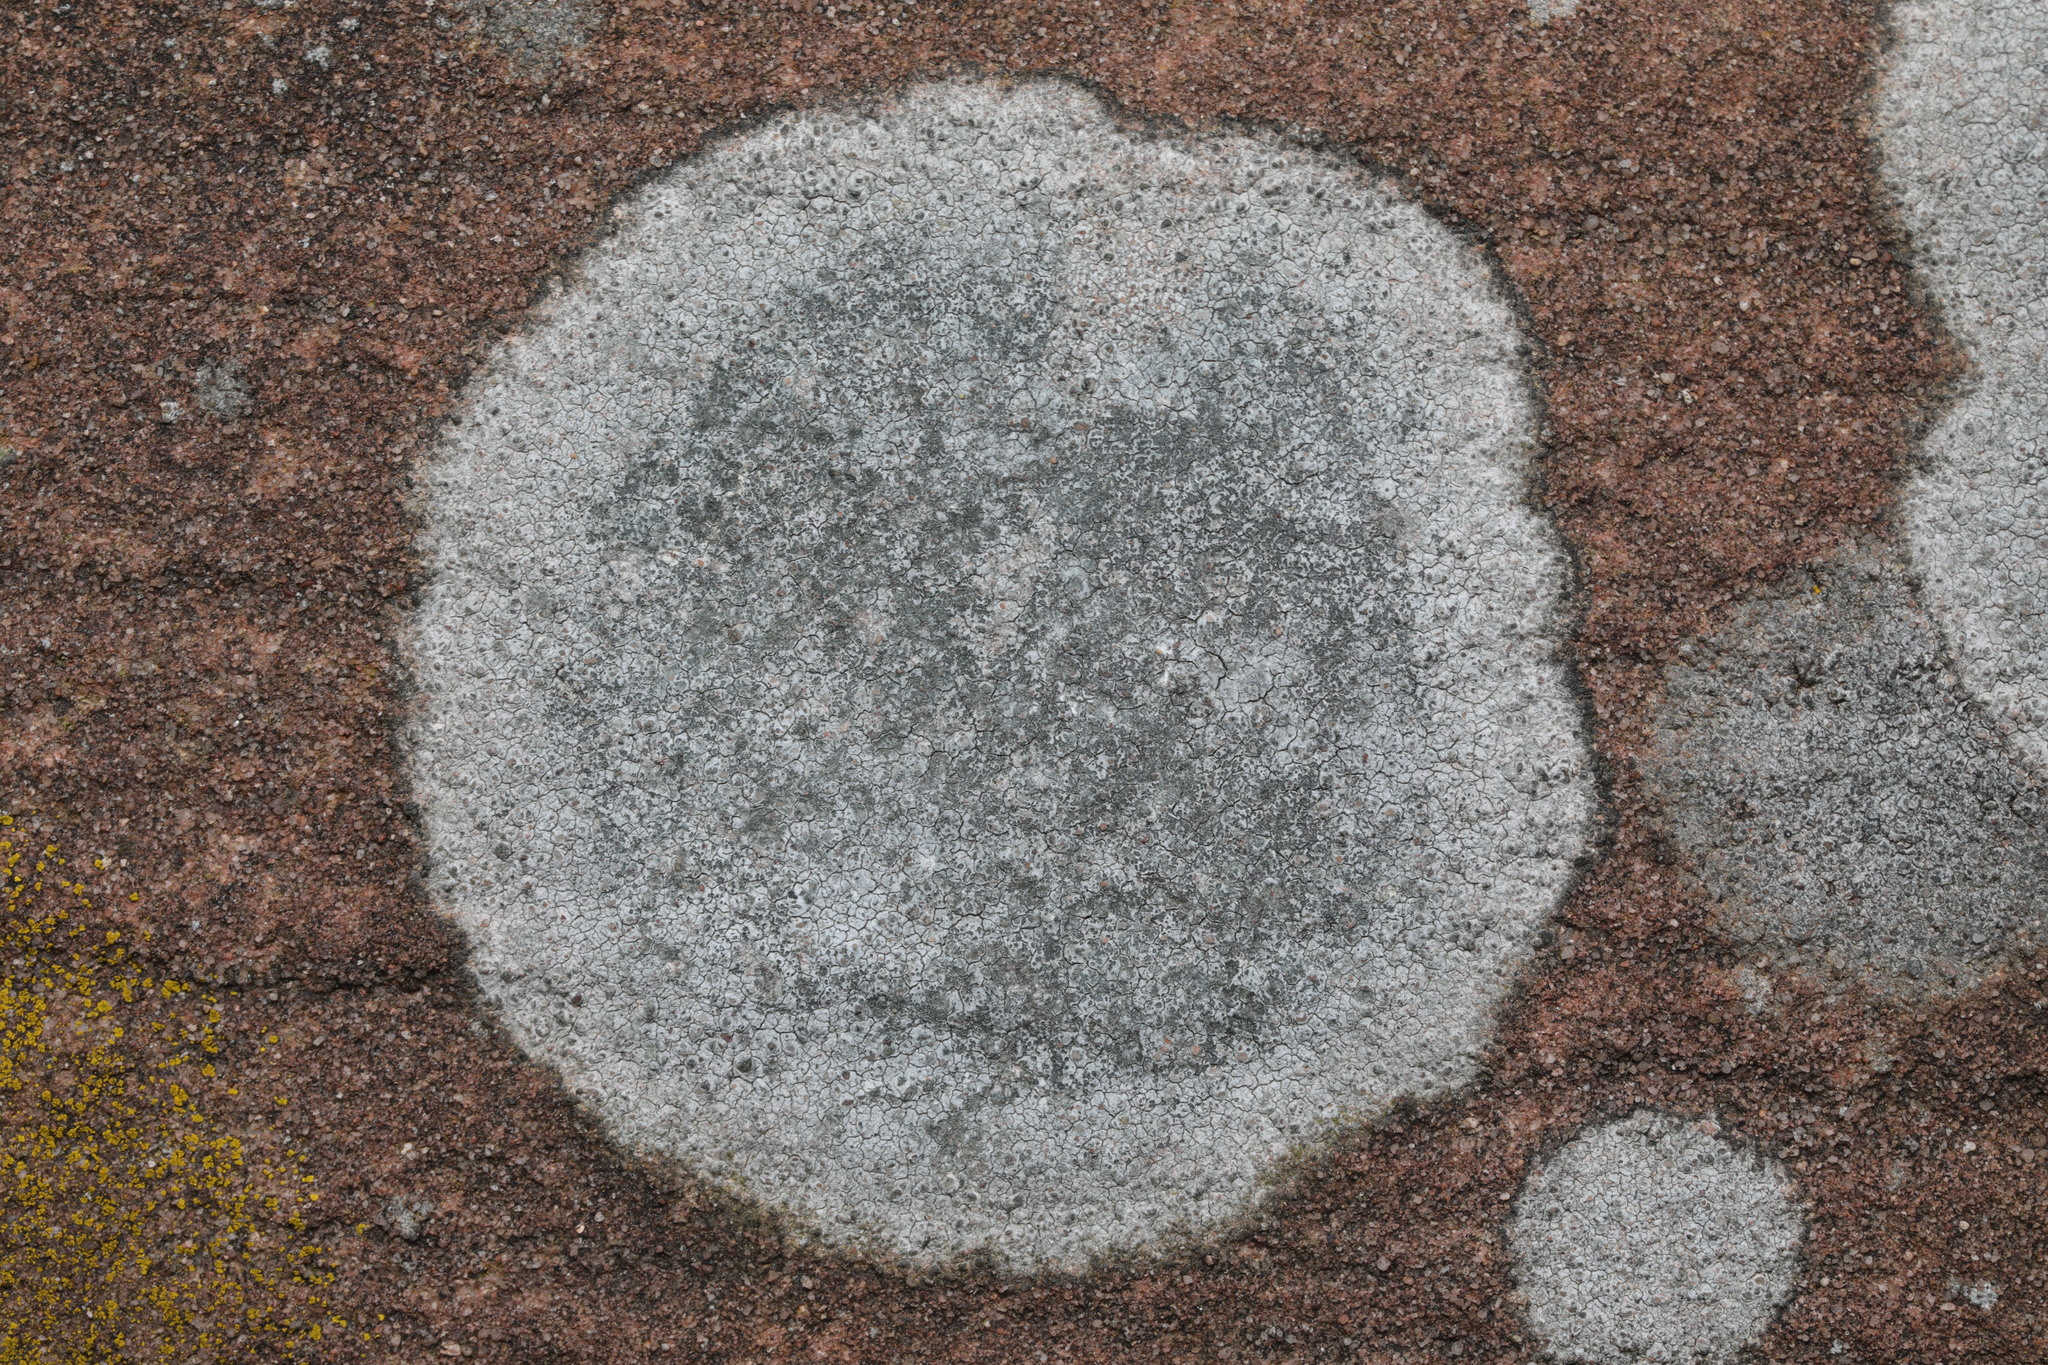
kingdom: Fungi
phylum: Ascomycota
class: Lecanoromycetes
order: Lecideales
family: Lecideaceae
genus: Porpidia
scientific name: Porpidia tuberculosa
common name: Boulder lichen
